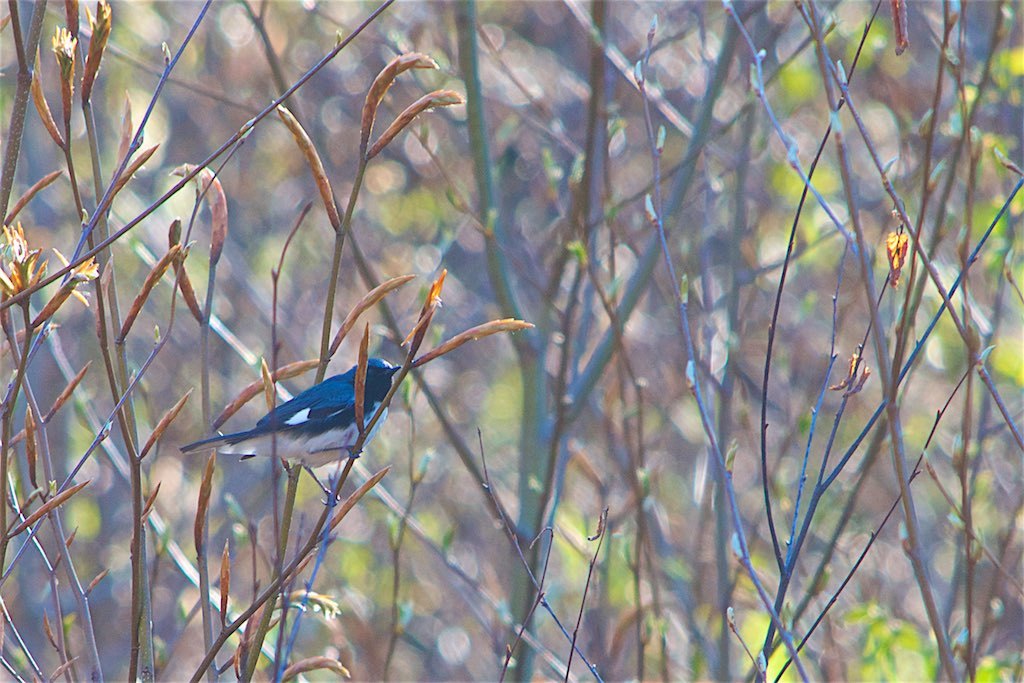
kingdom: Animalia
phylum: Chordata
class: Aves
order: Passeriformes
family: Parulidae
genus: Setophaga
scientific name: Setophaga caerulescens
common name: Black-throated blue warbler
